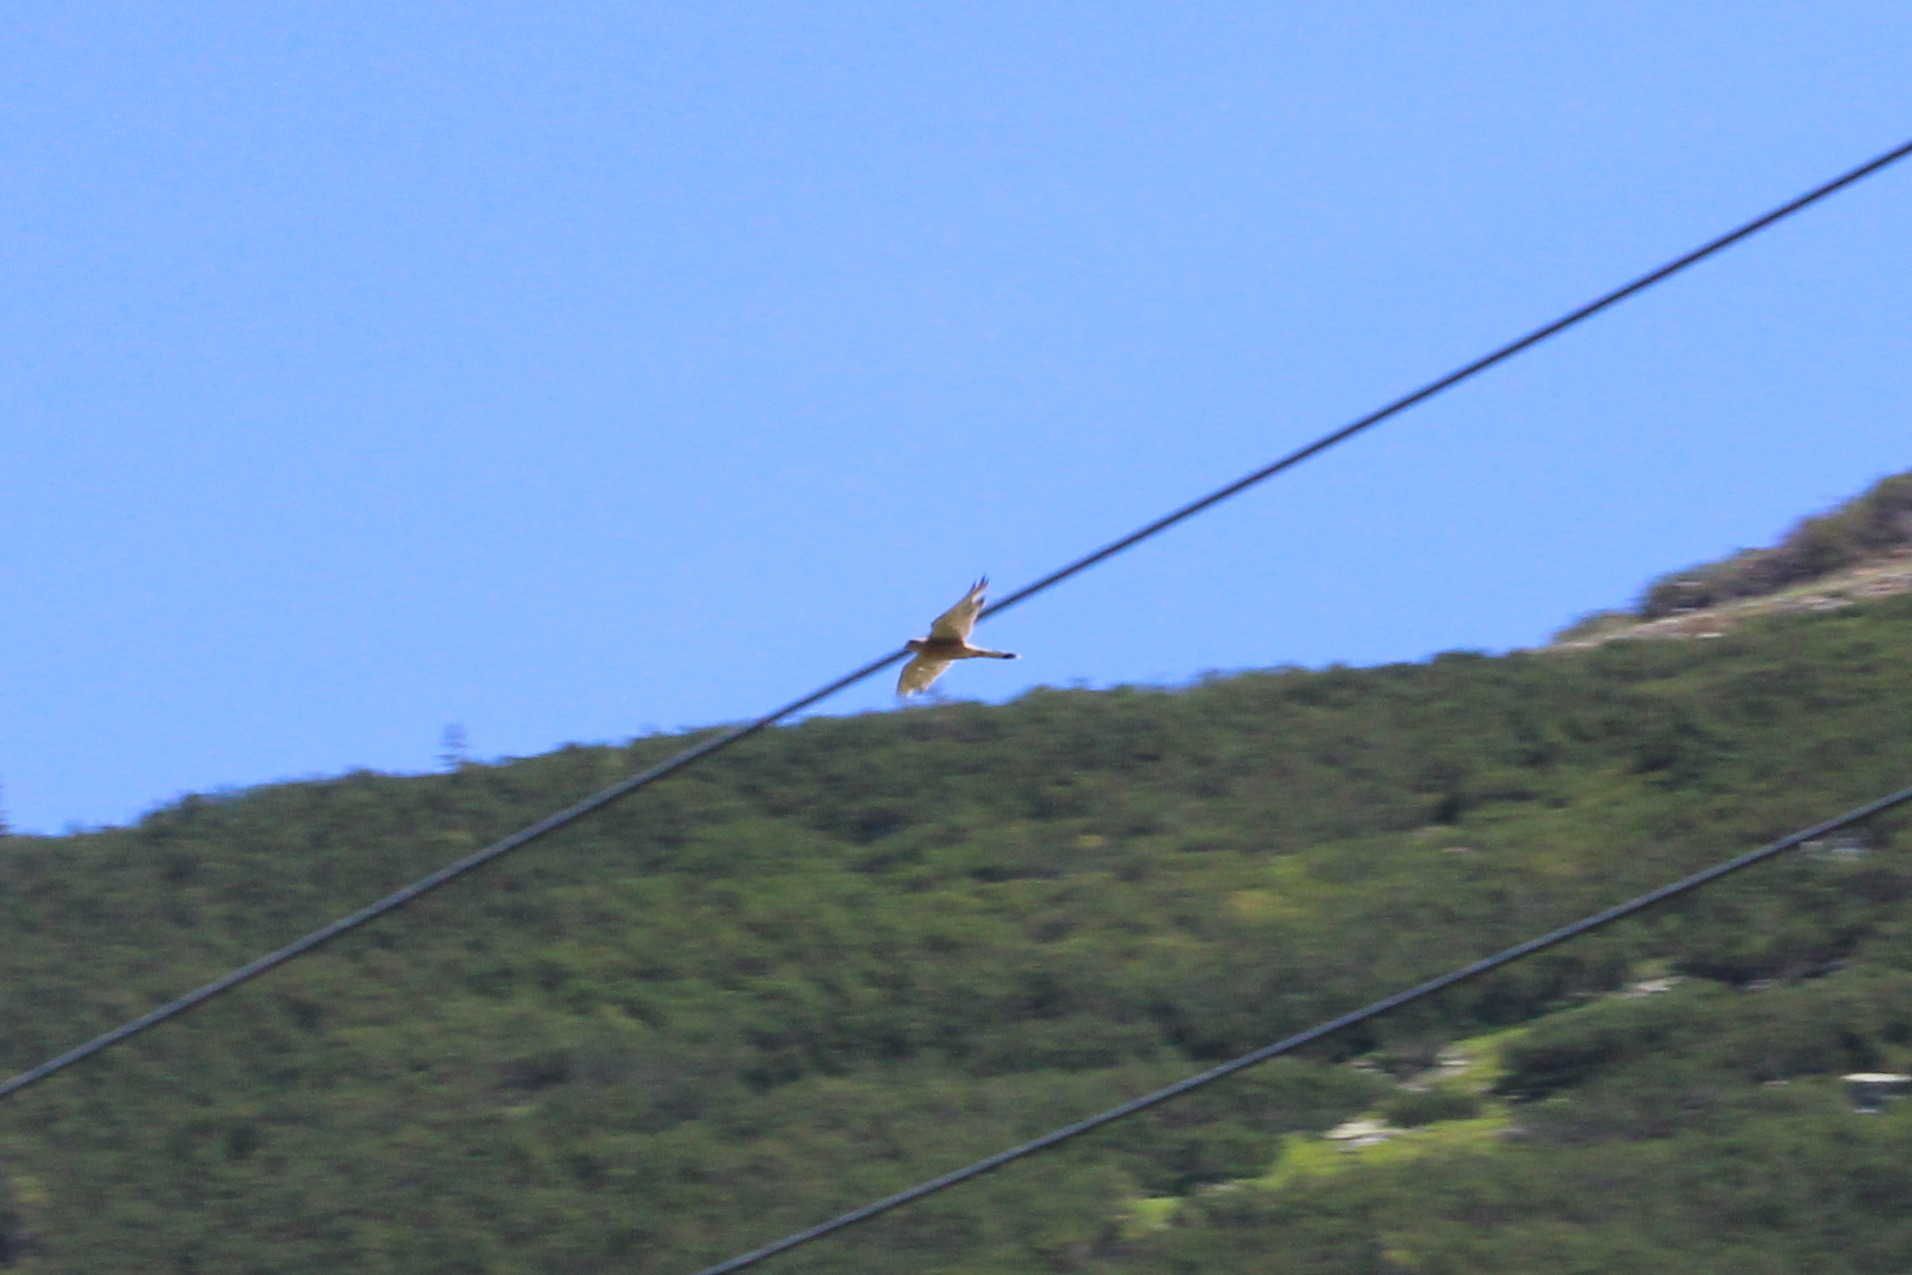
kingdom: Animalia
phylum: Chordata
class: Aves
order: Falconiformes
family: Falconidae
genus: Falco
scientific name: Falco tinnunculus
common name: Common kestrel
